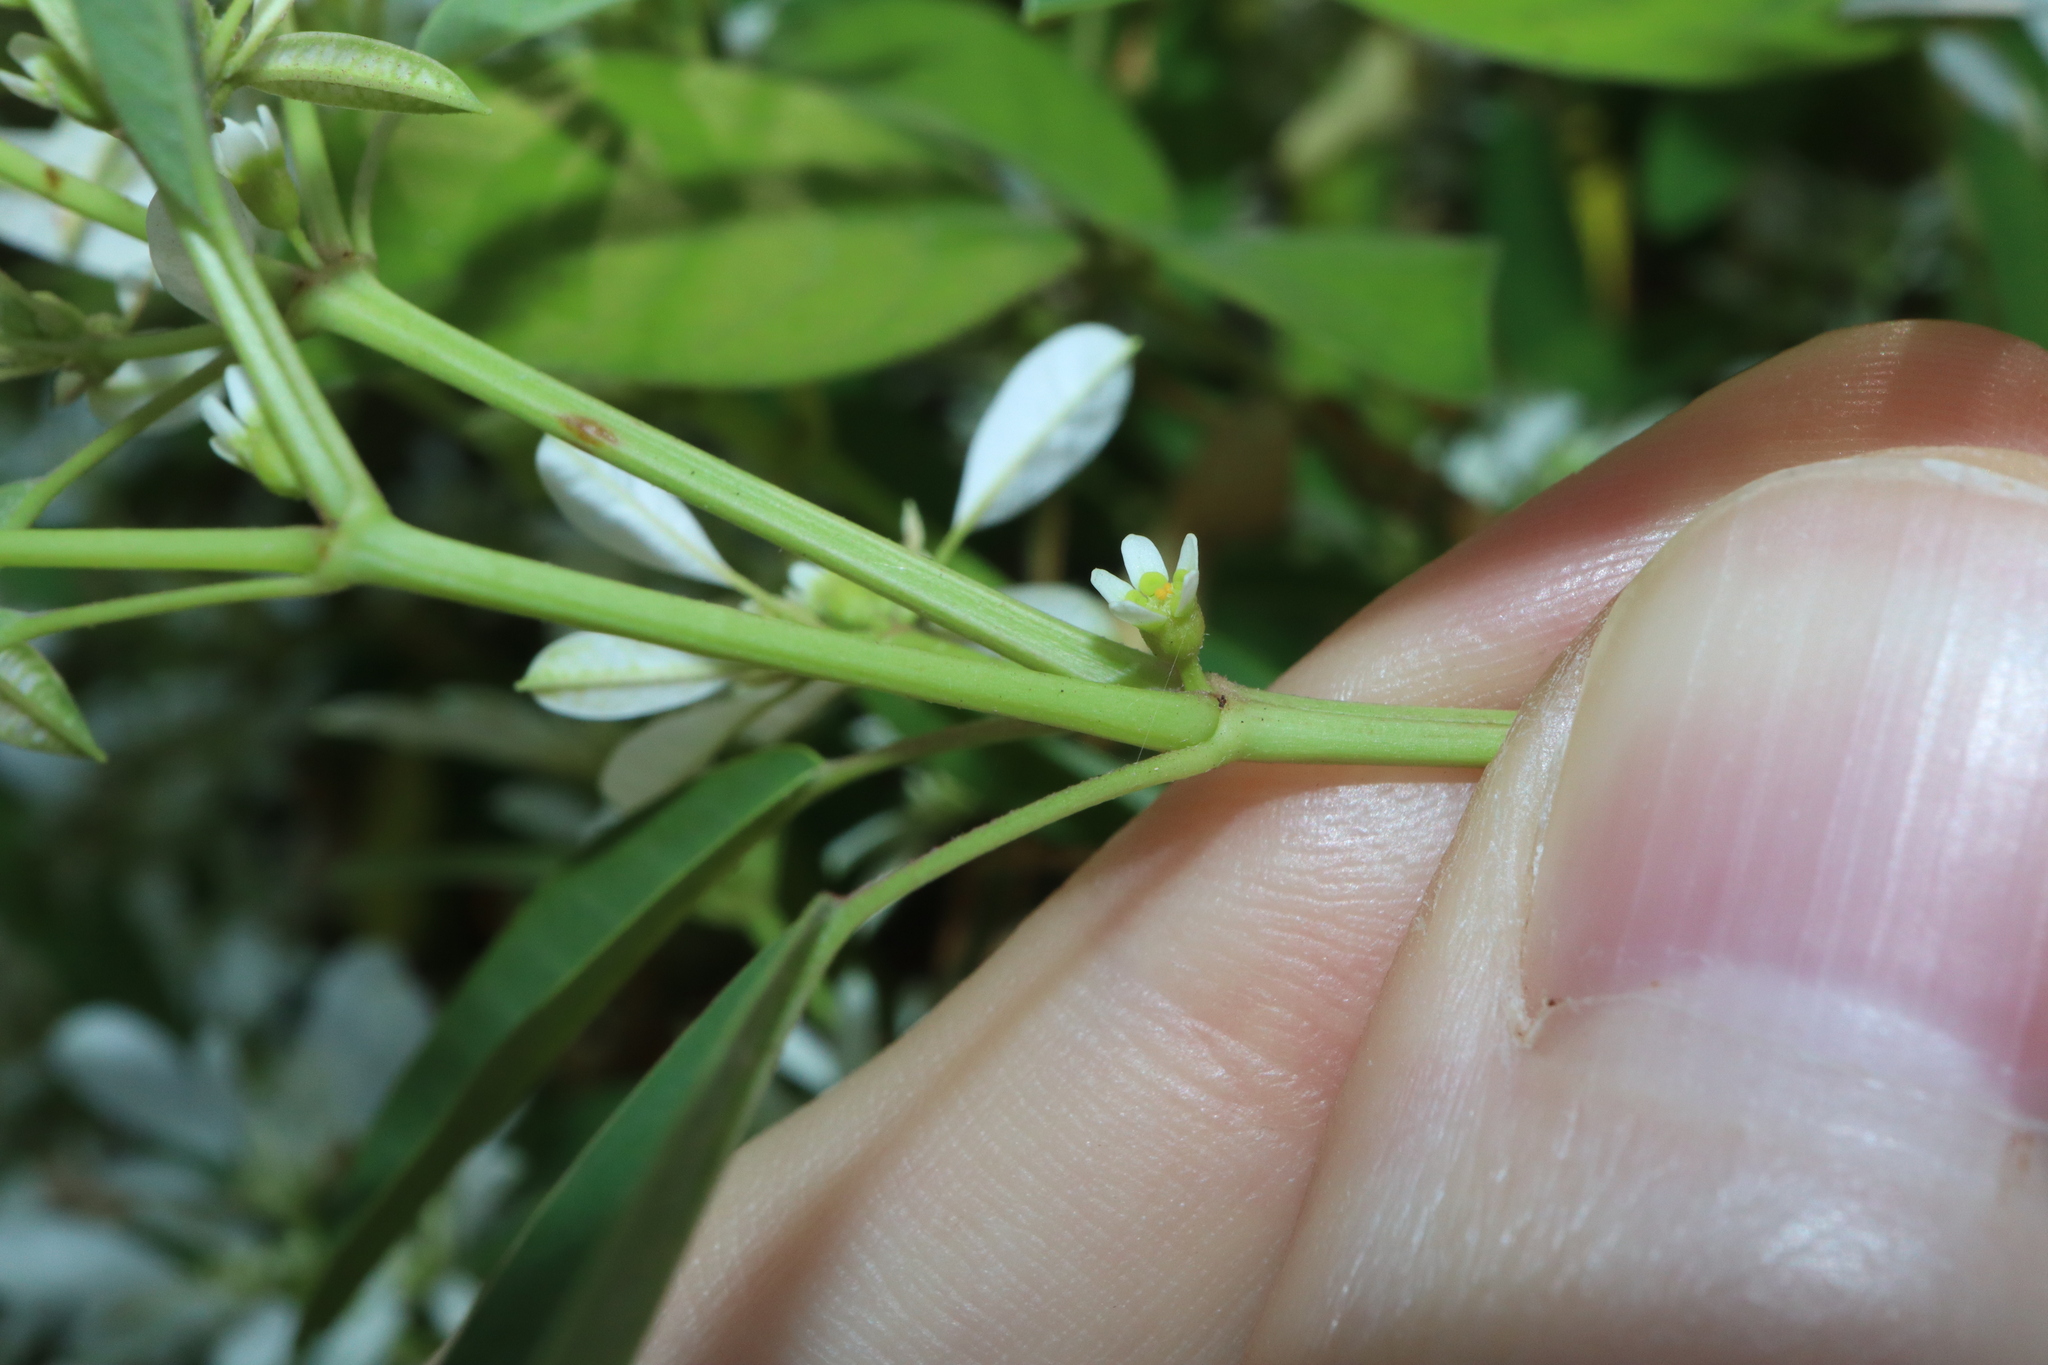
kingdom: Plantae
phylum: Tracheophyta
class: Magnoliopsida
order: Malpighiales
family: Euphorbiaceae
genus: Euphorbia
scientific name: Euphorbia leucocephala
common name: Pascuita
